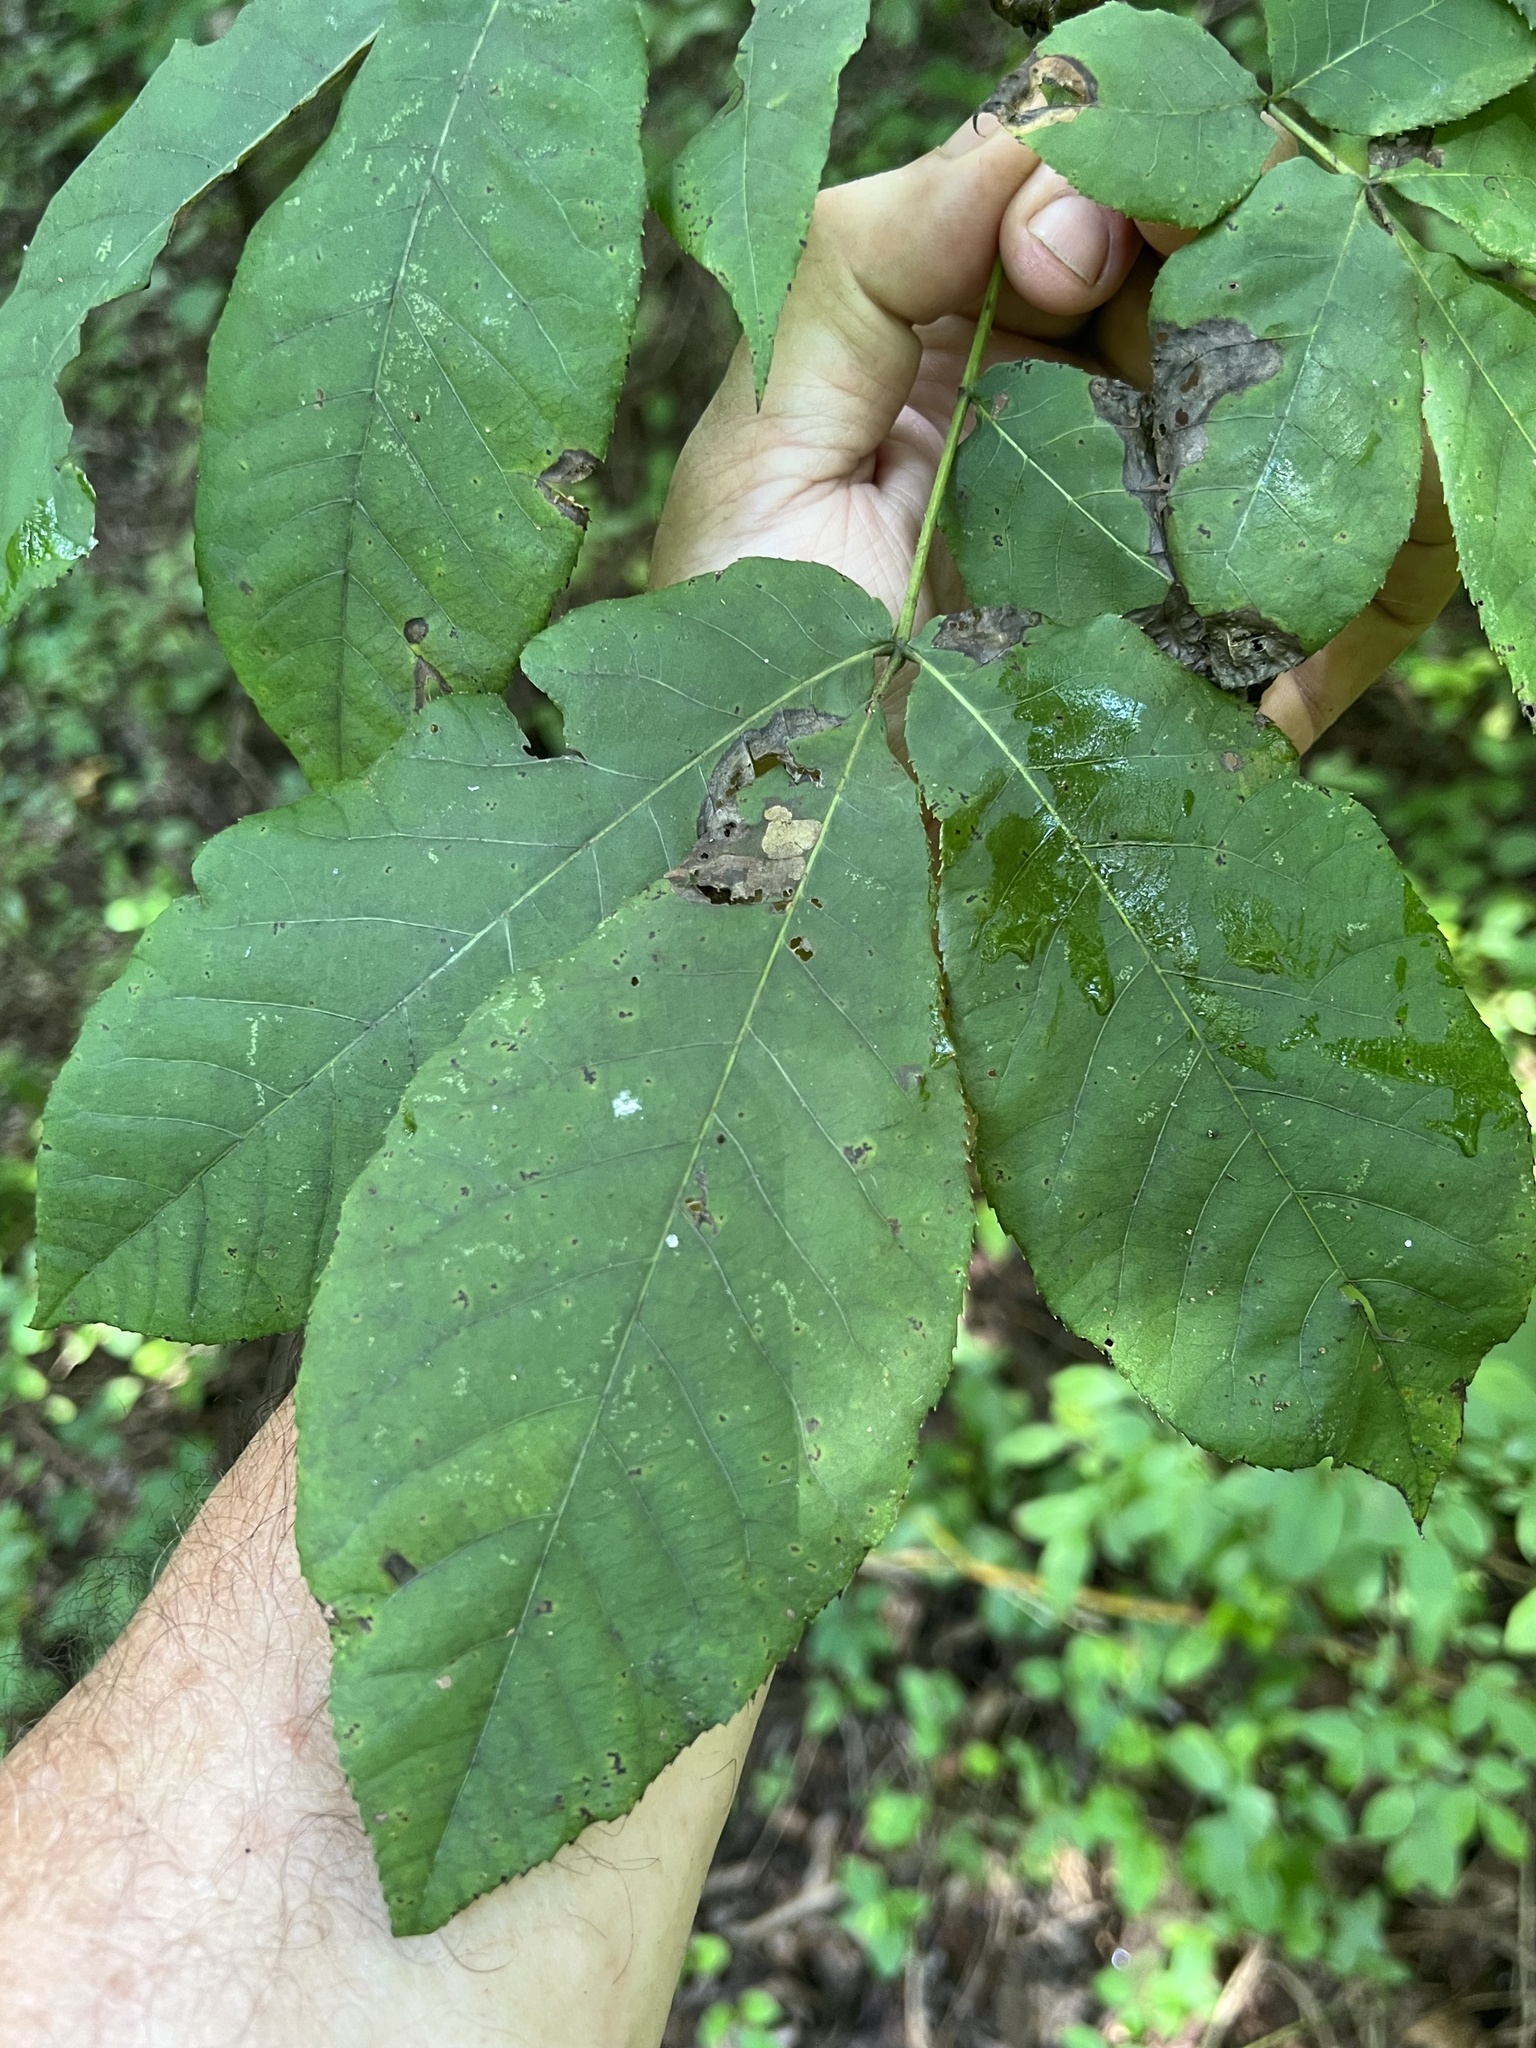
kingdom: Animalia
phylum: Arthropoda
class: Insecta
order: Diptera
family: Cecidomyiidae
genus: Caryomyia
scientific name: Caryomyia viscidolium
